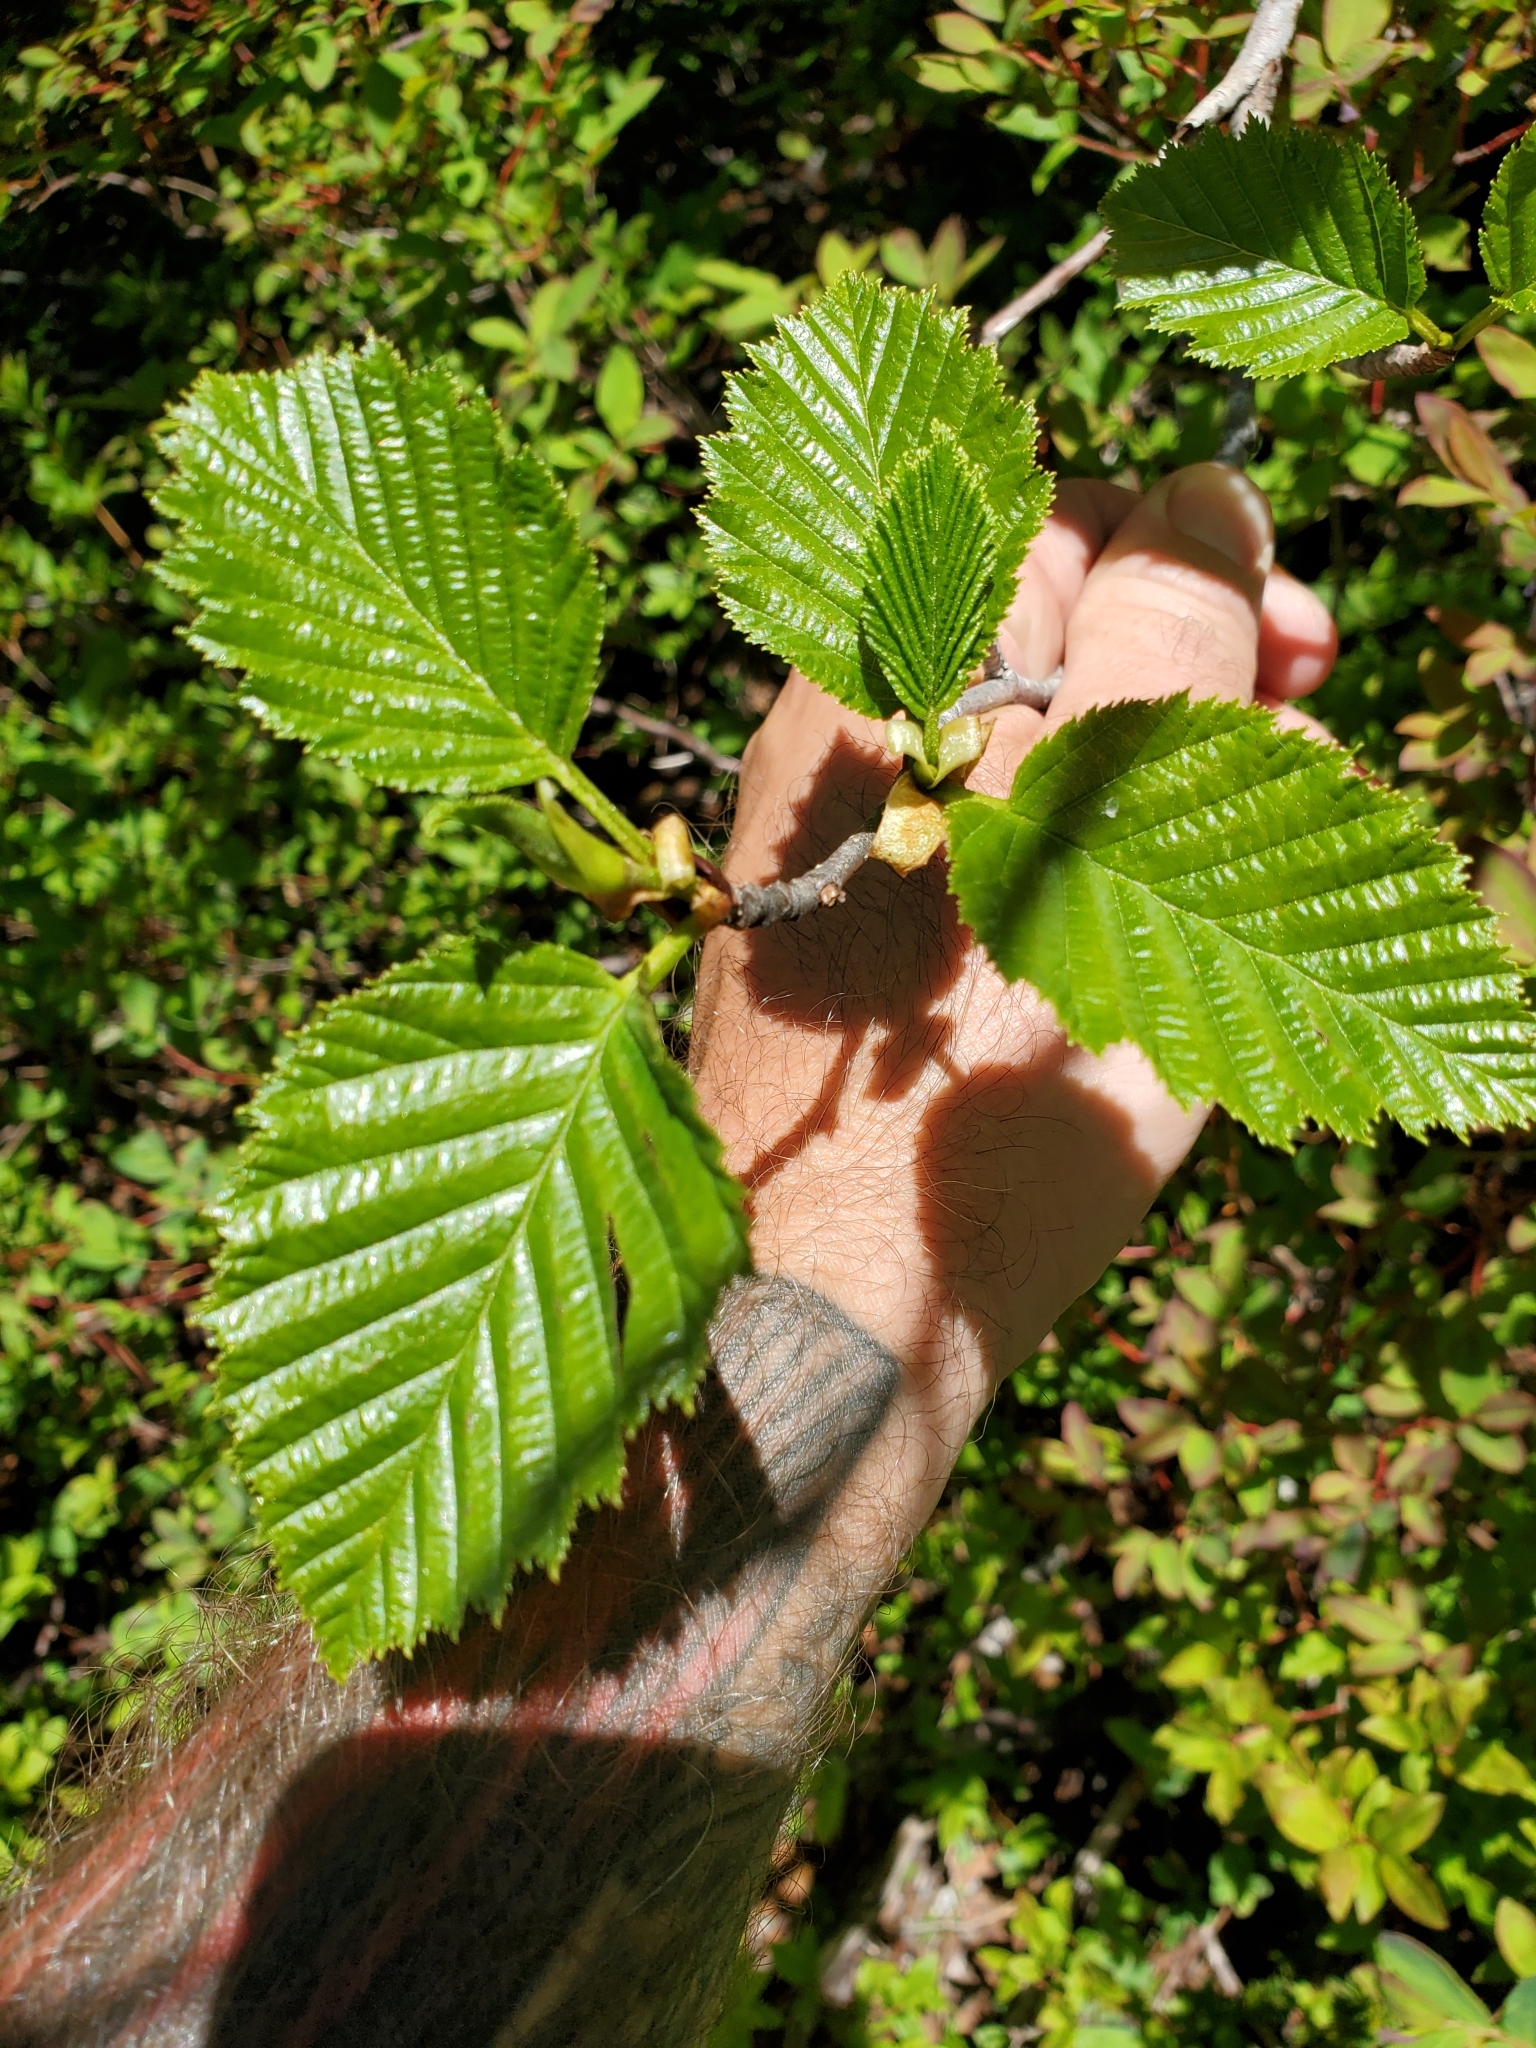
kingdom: Plantae
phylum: Tracheophyta
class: Magnoliopsida
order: Fagales
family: Betulaceae
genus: Alnus
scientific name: Alnus alnobetula
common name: Green alder
